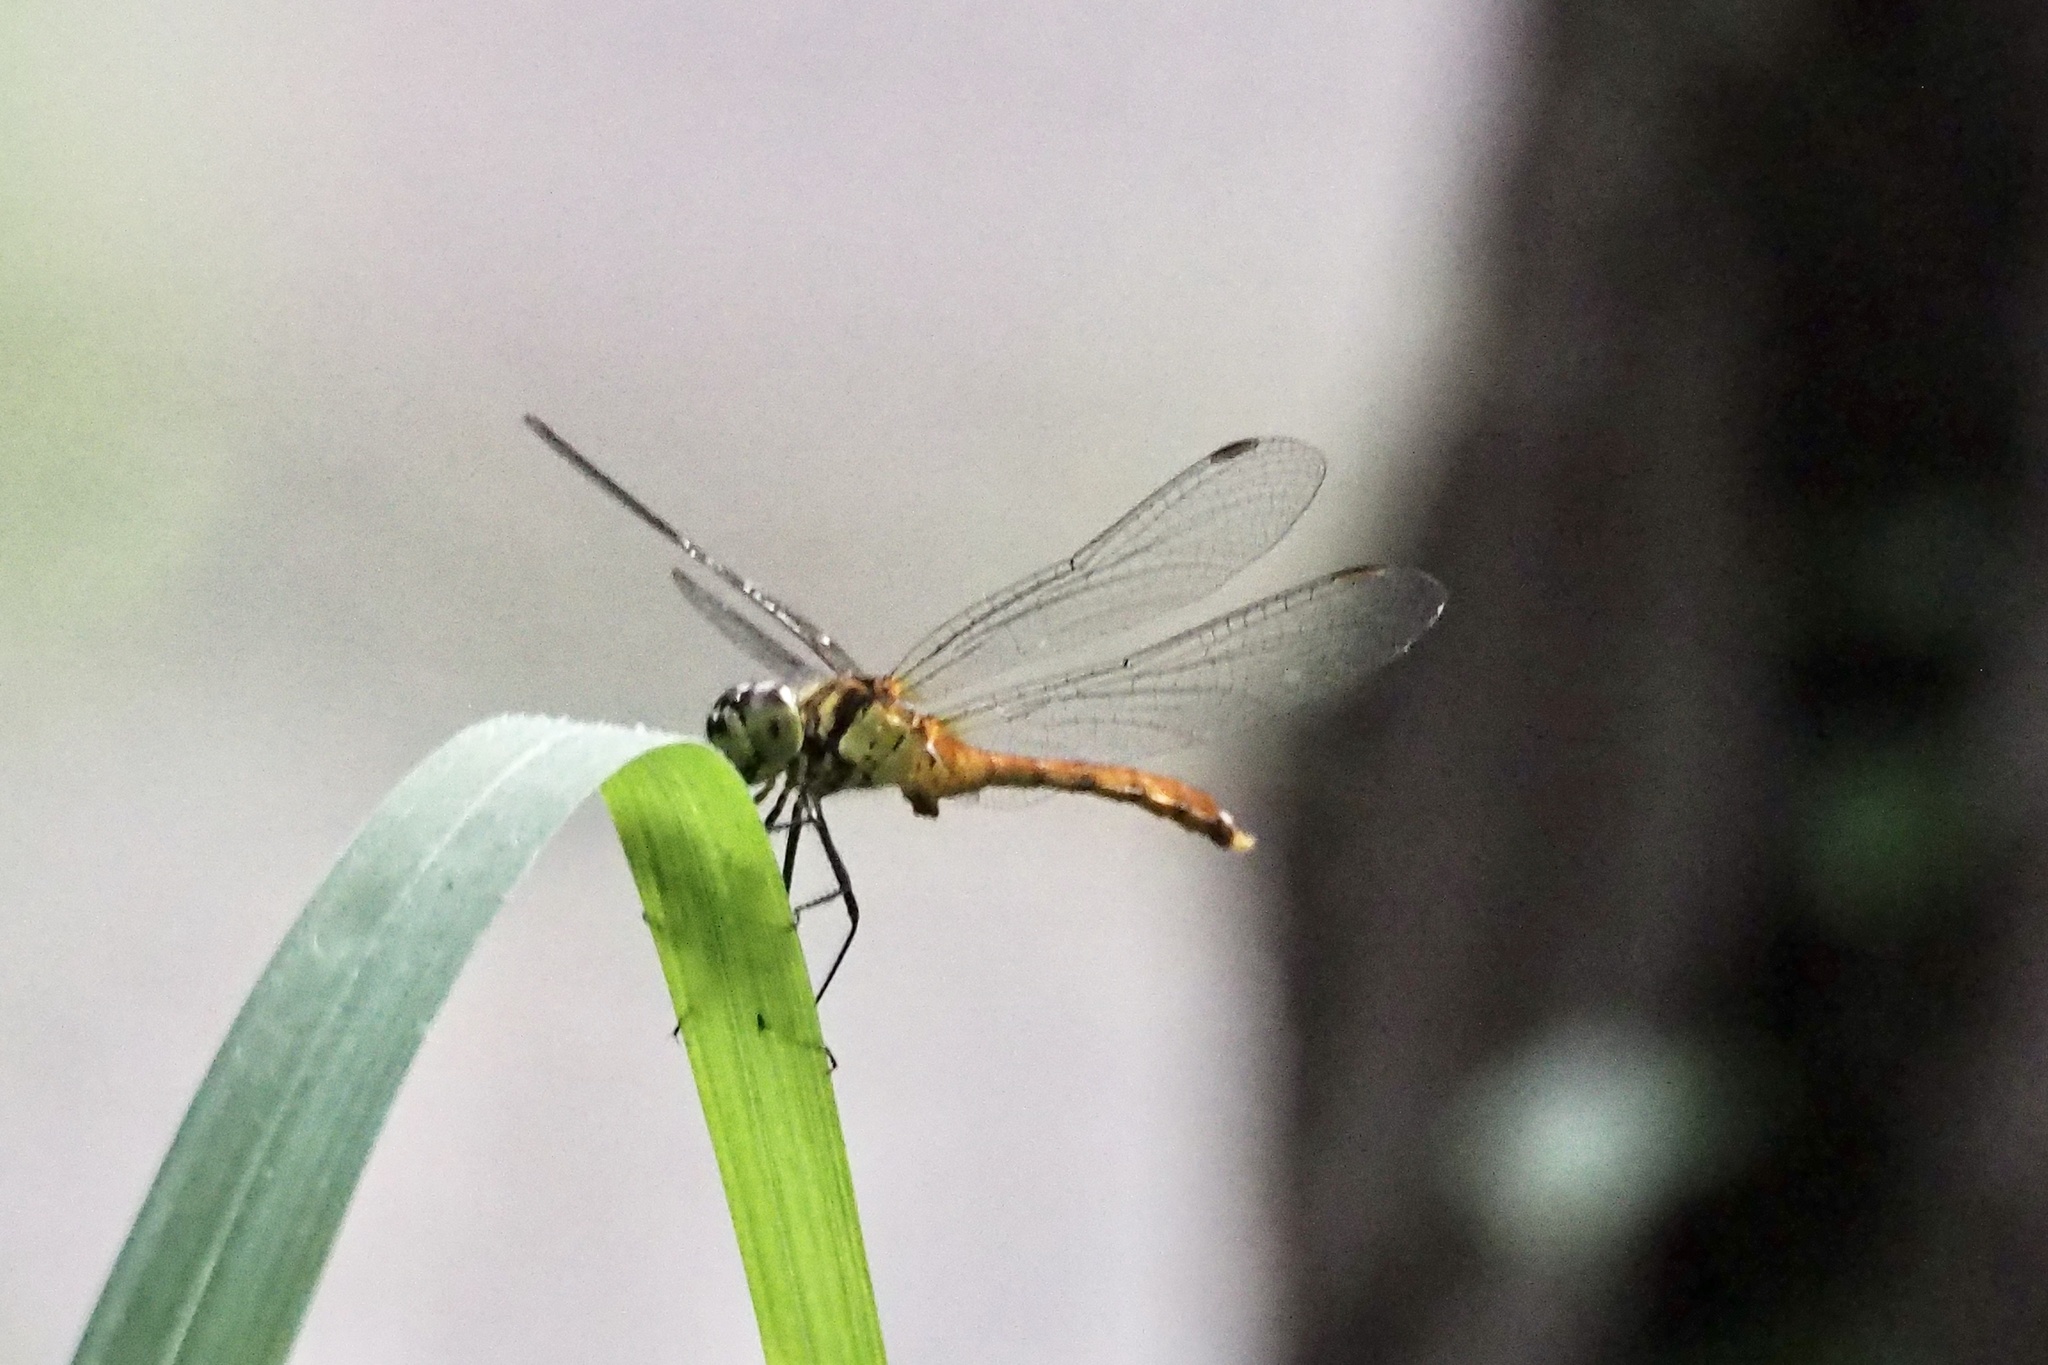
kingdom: Animalia
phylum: Arthropoda
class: Insecta
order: Odonata
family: Libellulidae
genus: Sympetrum
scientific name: Sympetrum eroticum
